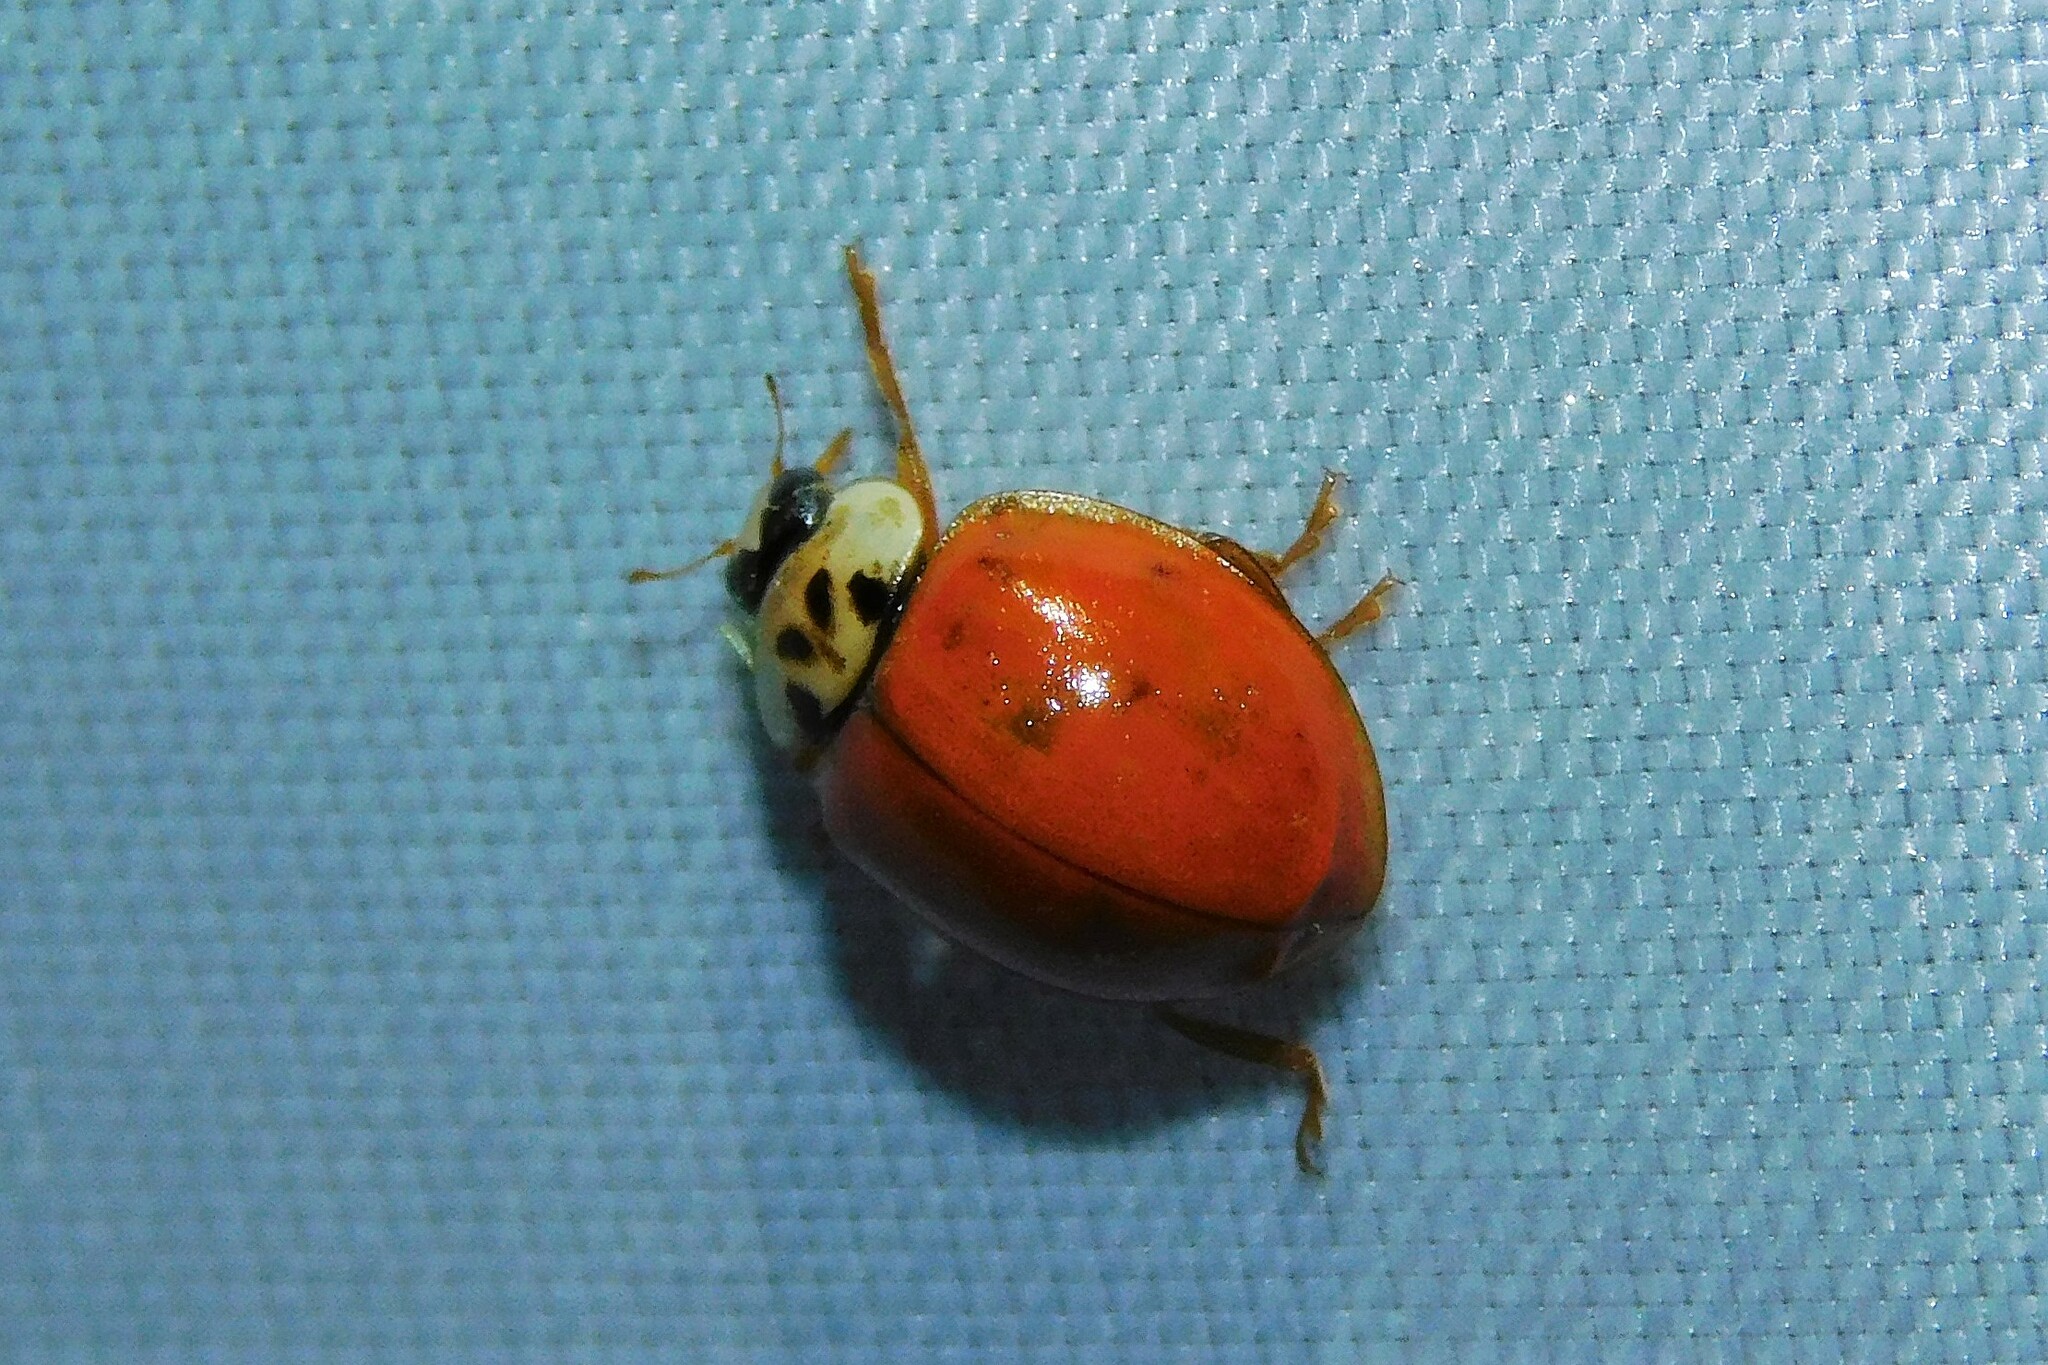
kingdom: Animalia
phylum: Arthropoda
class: Insecta
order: Coleoptera
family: Coccinellidae
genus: Harmonia
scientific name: Harmonia axyridis
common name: Harlequin ladybird
